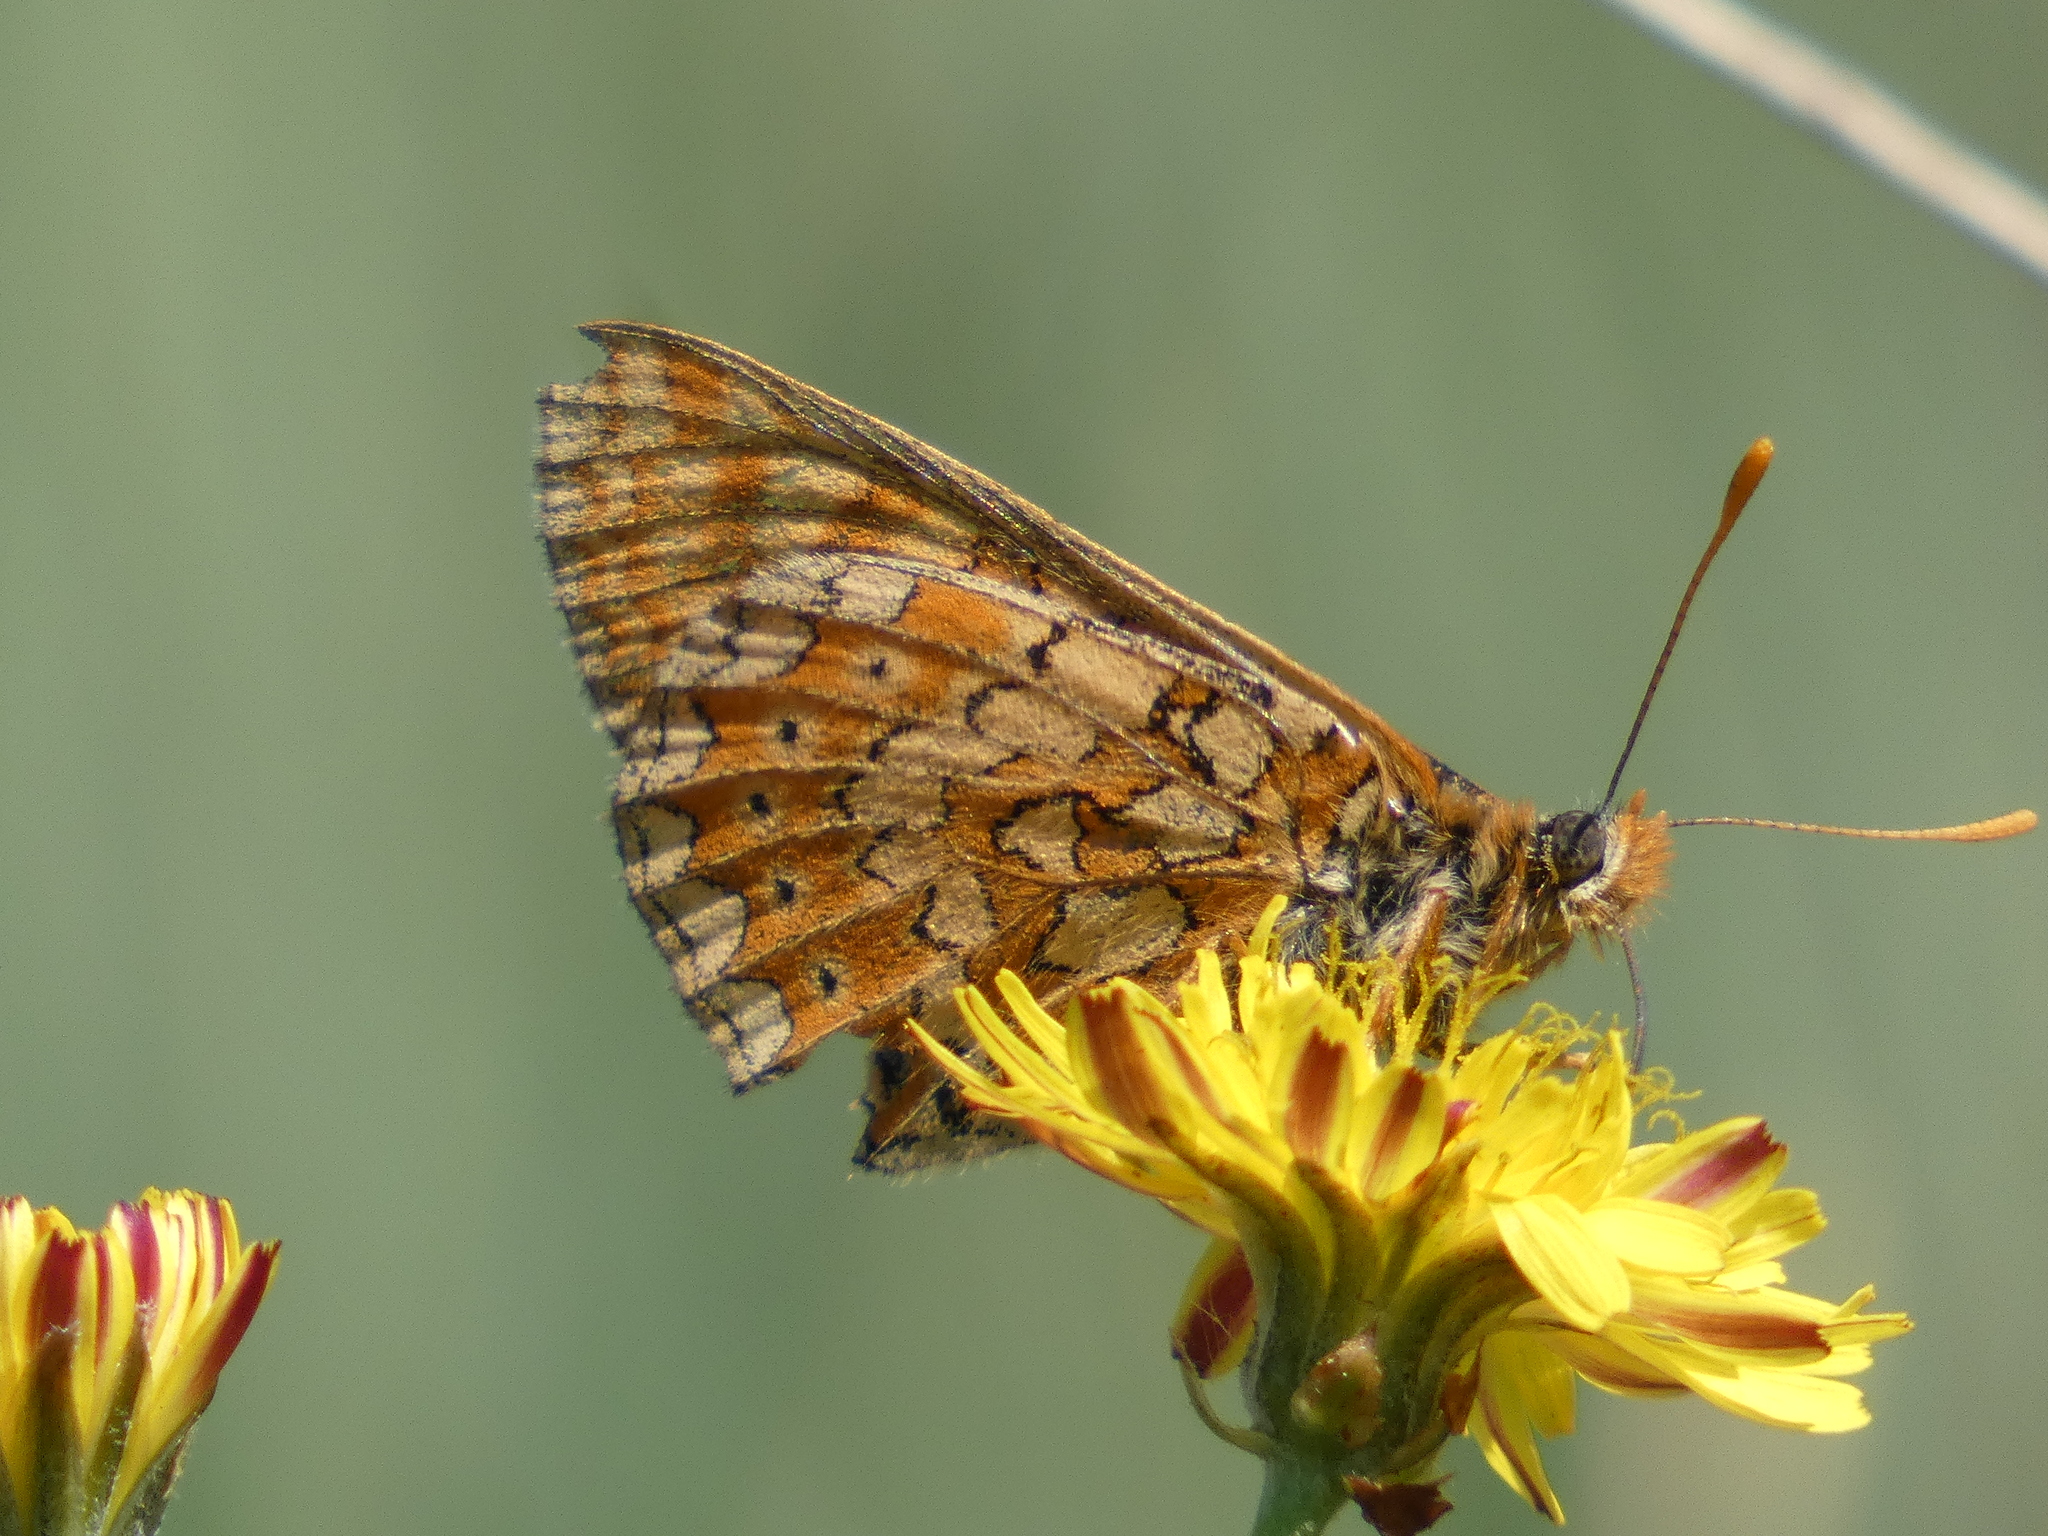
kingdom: Animalia
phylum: Arthropoda
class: Insecta
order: Lepidoptera
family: Nymphalidae
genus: Euphydryas
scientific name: Euphydryas aurinia
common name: Marsh fritillary
